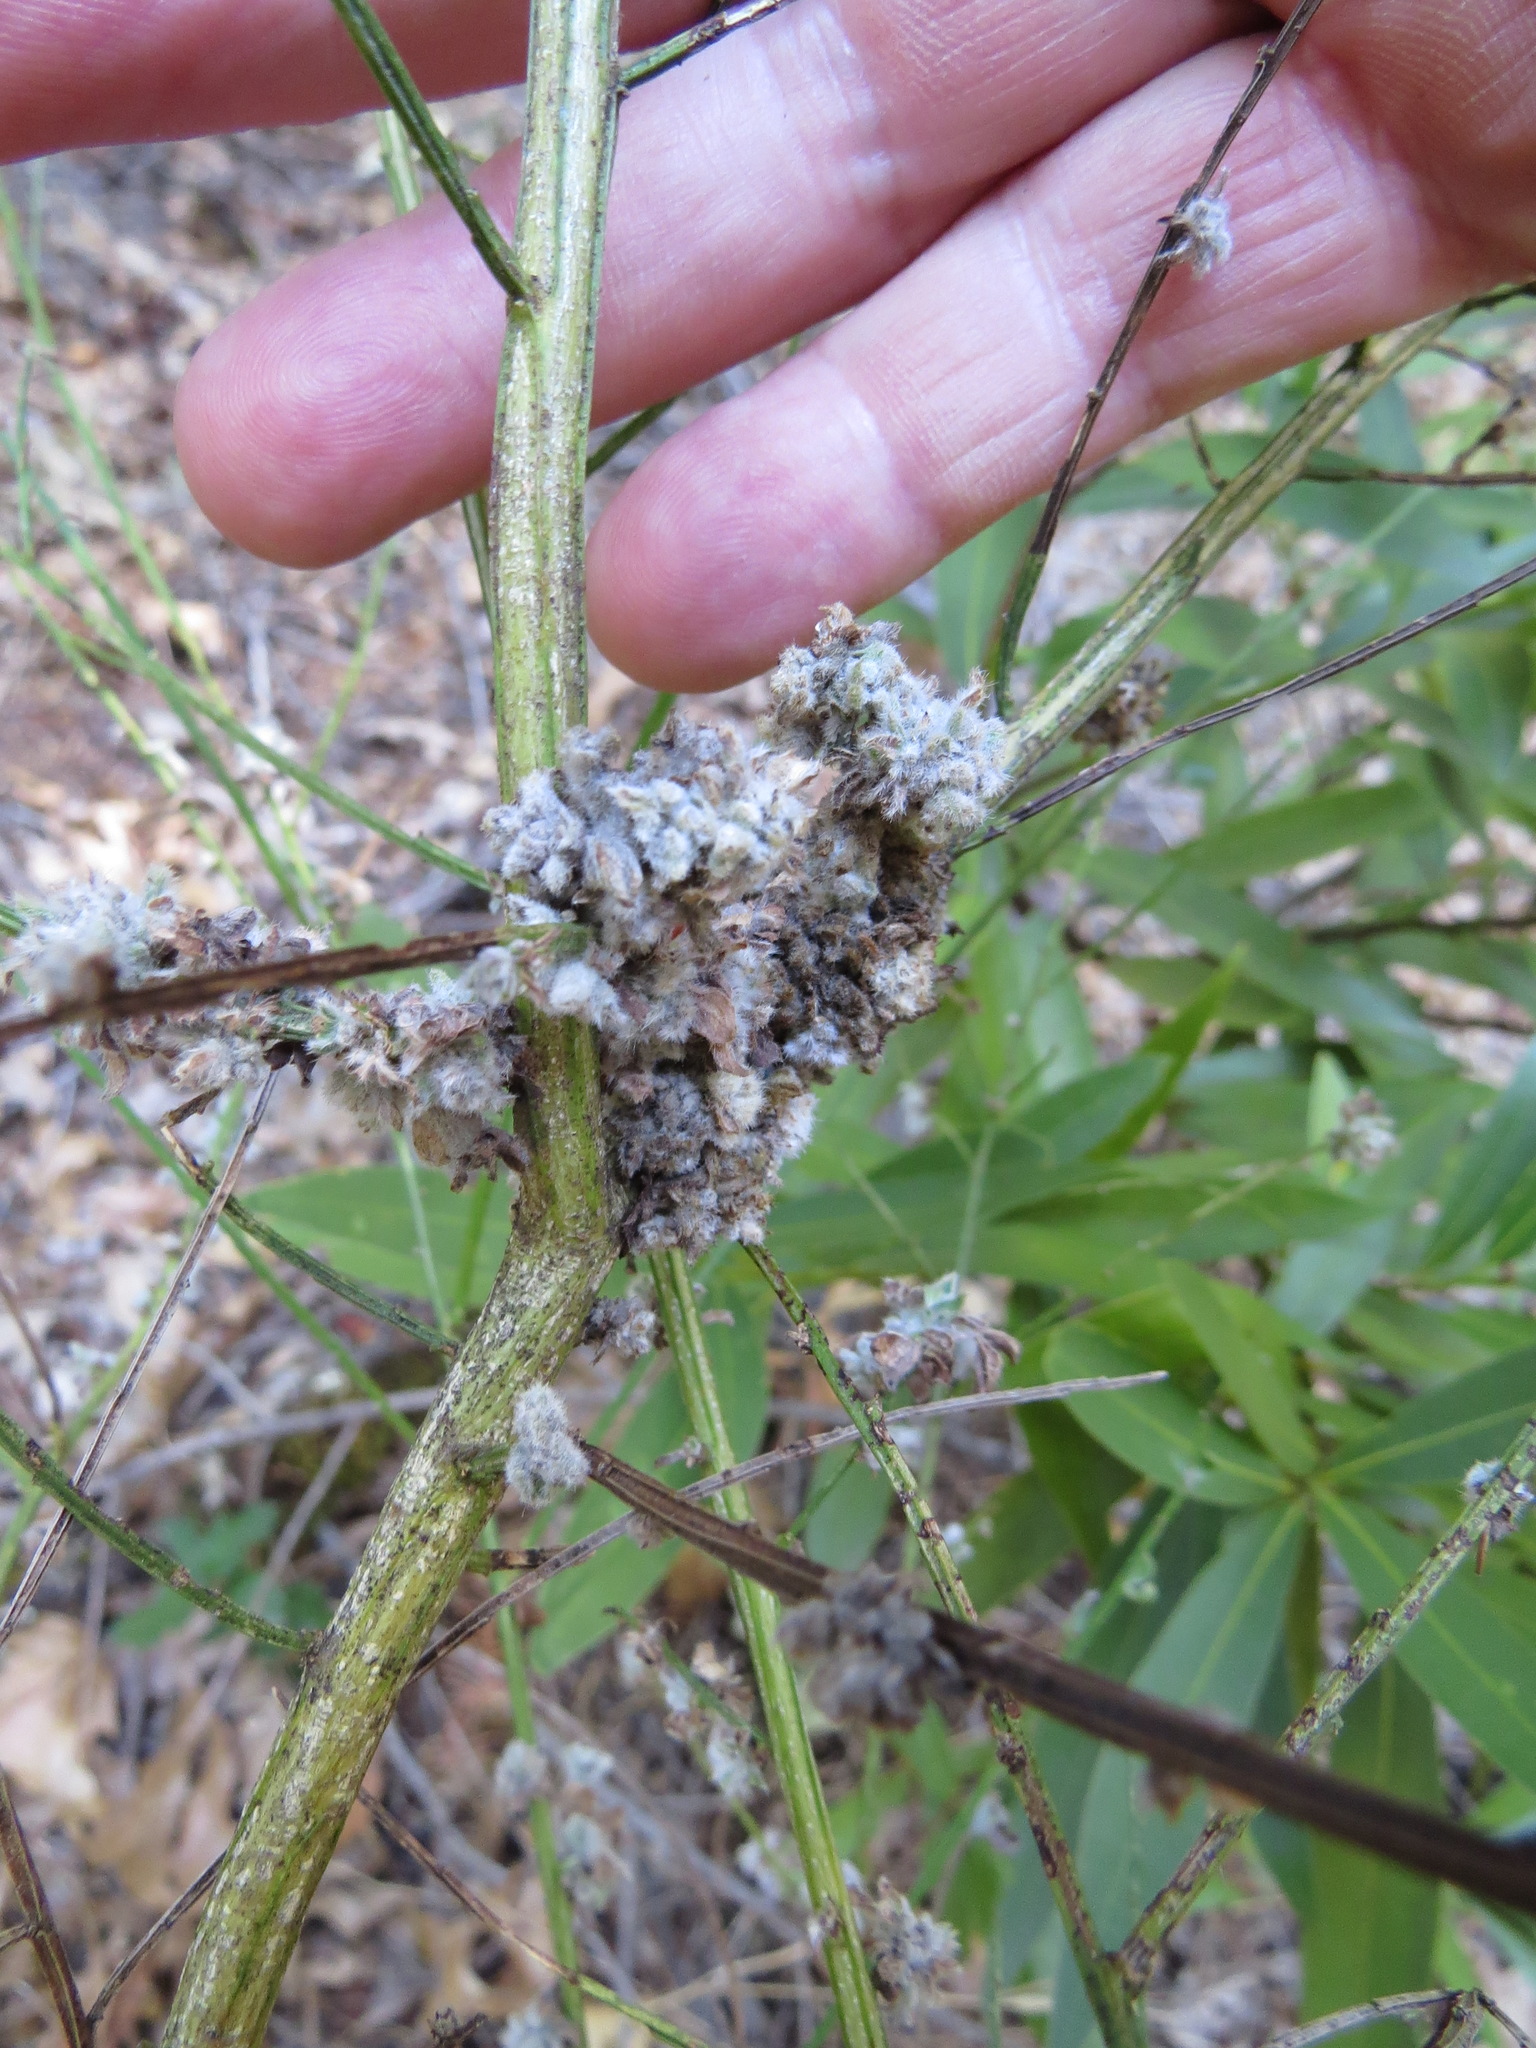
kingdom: Animalia
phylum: Arthropoda
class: Arachnida
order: Trombidiformes
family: Eriophyidae
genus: Aceria
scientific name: Aceria genistae
